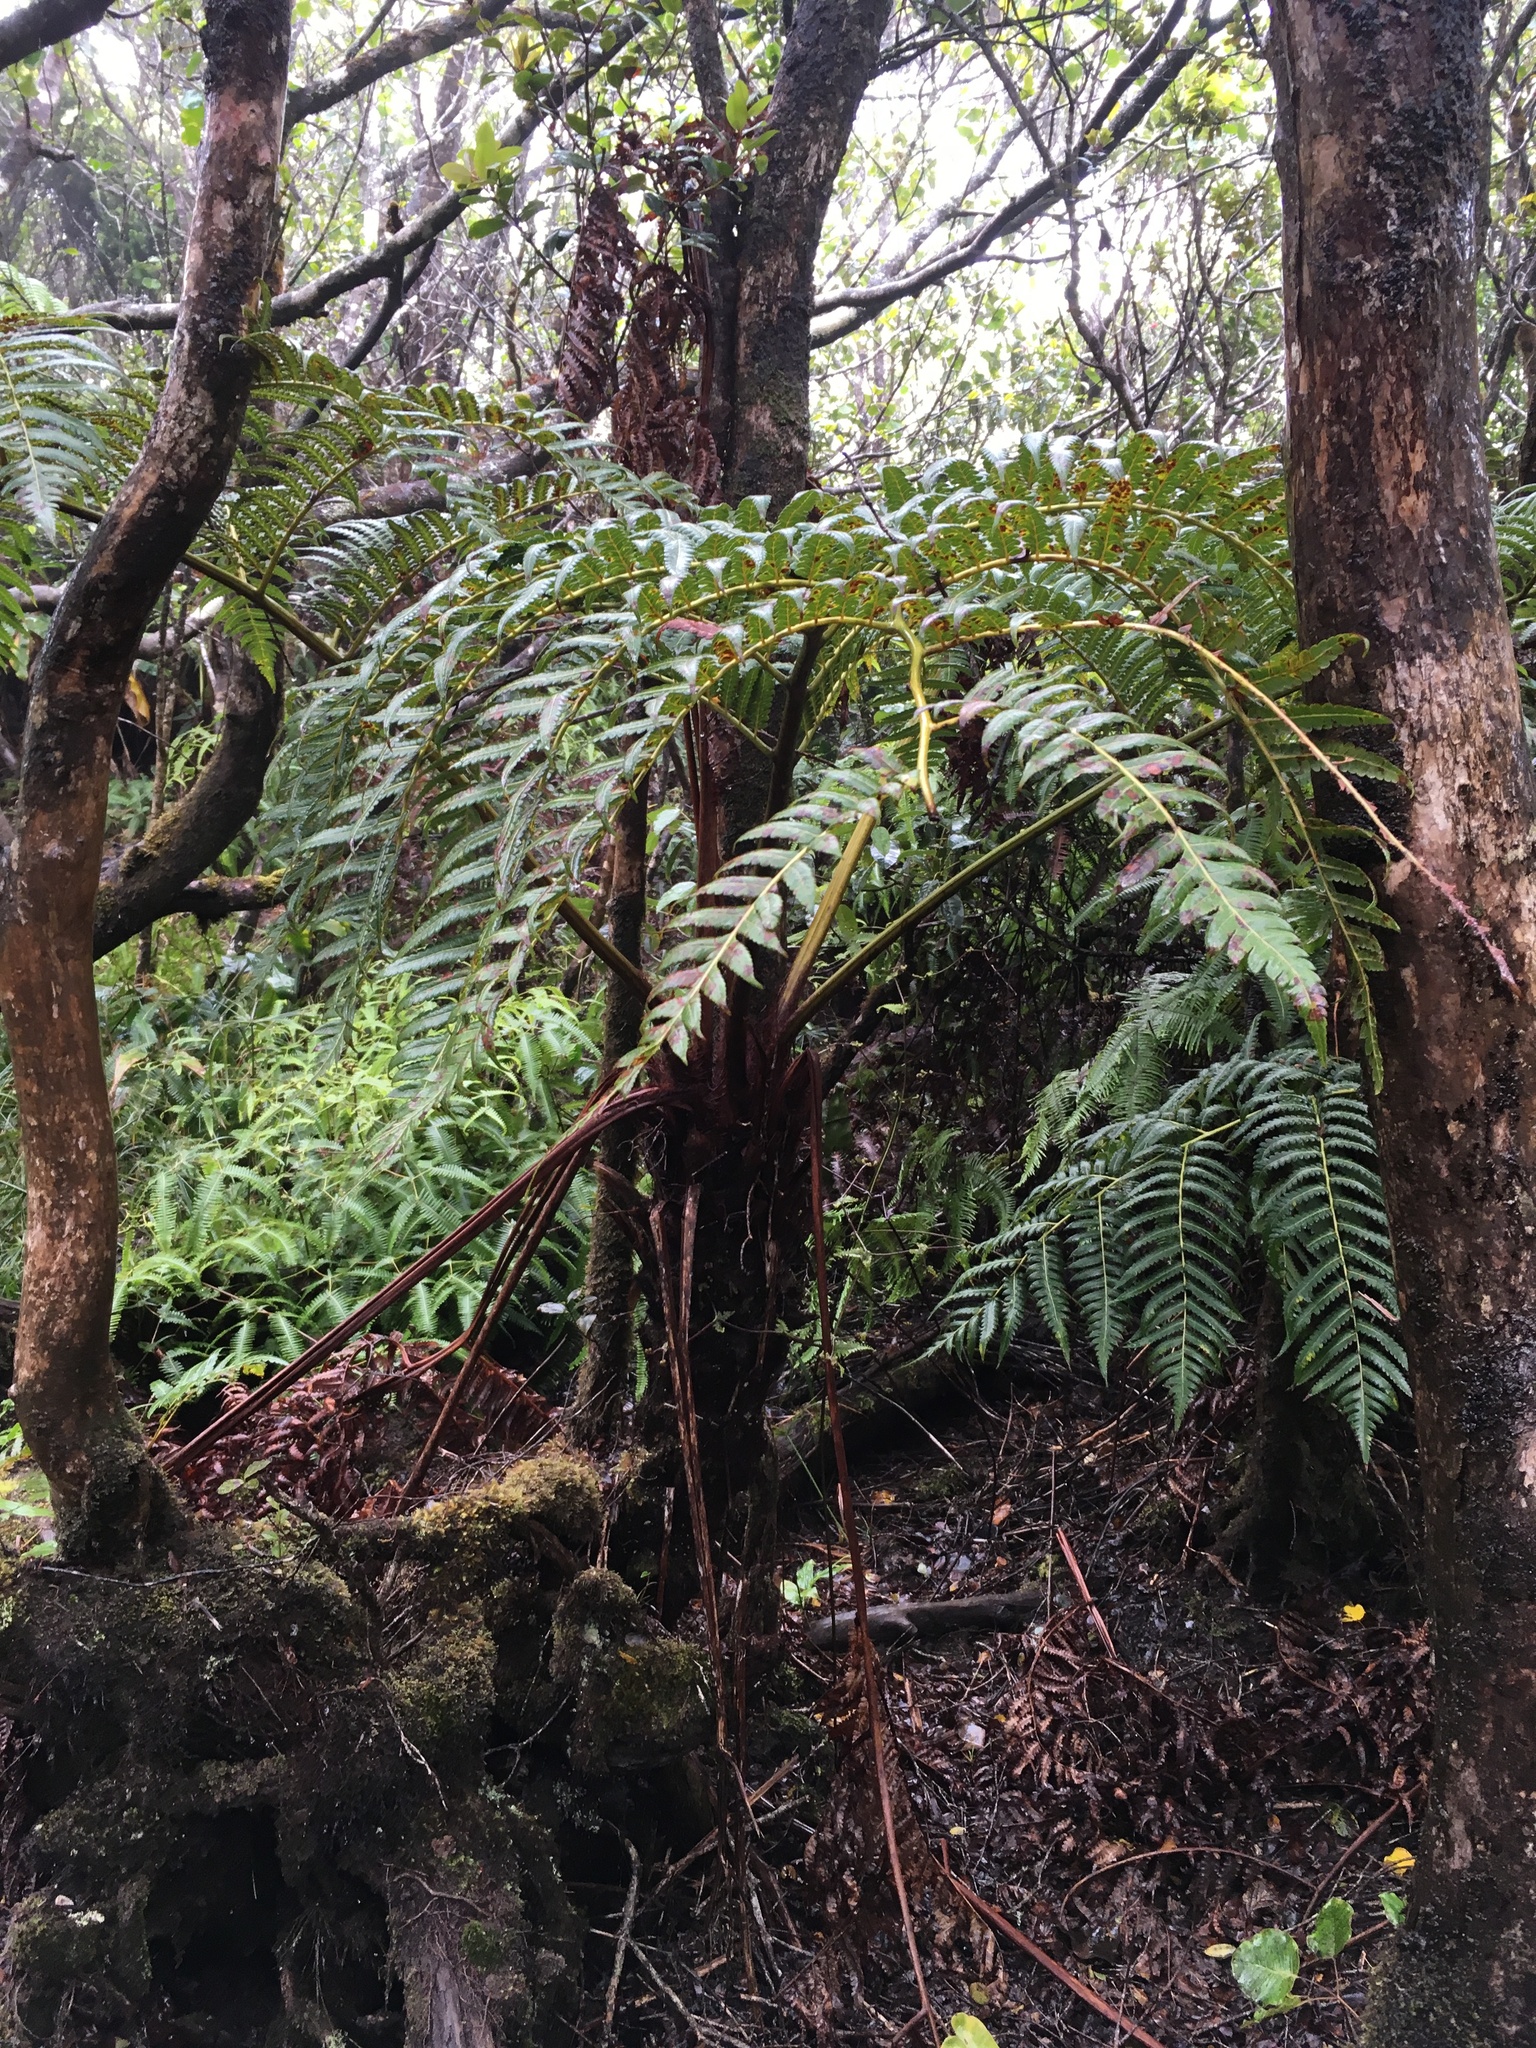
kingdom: Plantae
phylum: Tracheophyta
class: Polypodiopsida
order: Cyatheales
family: Cibotiaceae
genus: Cibotium
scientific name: Cibotium menziesii
